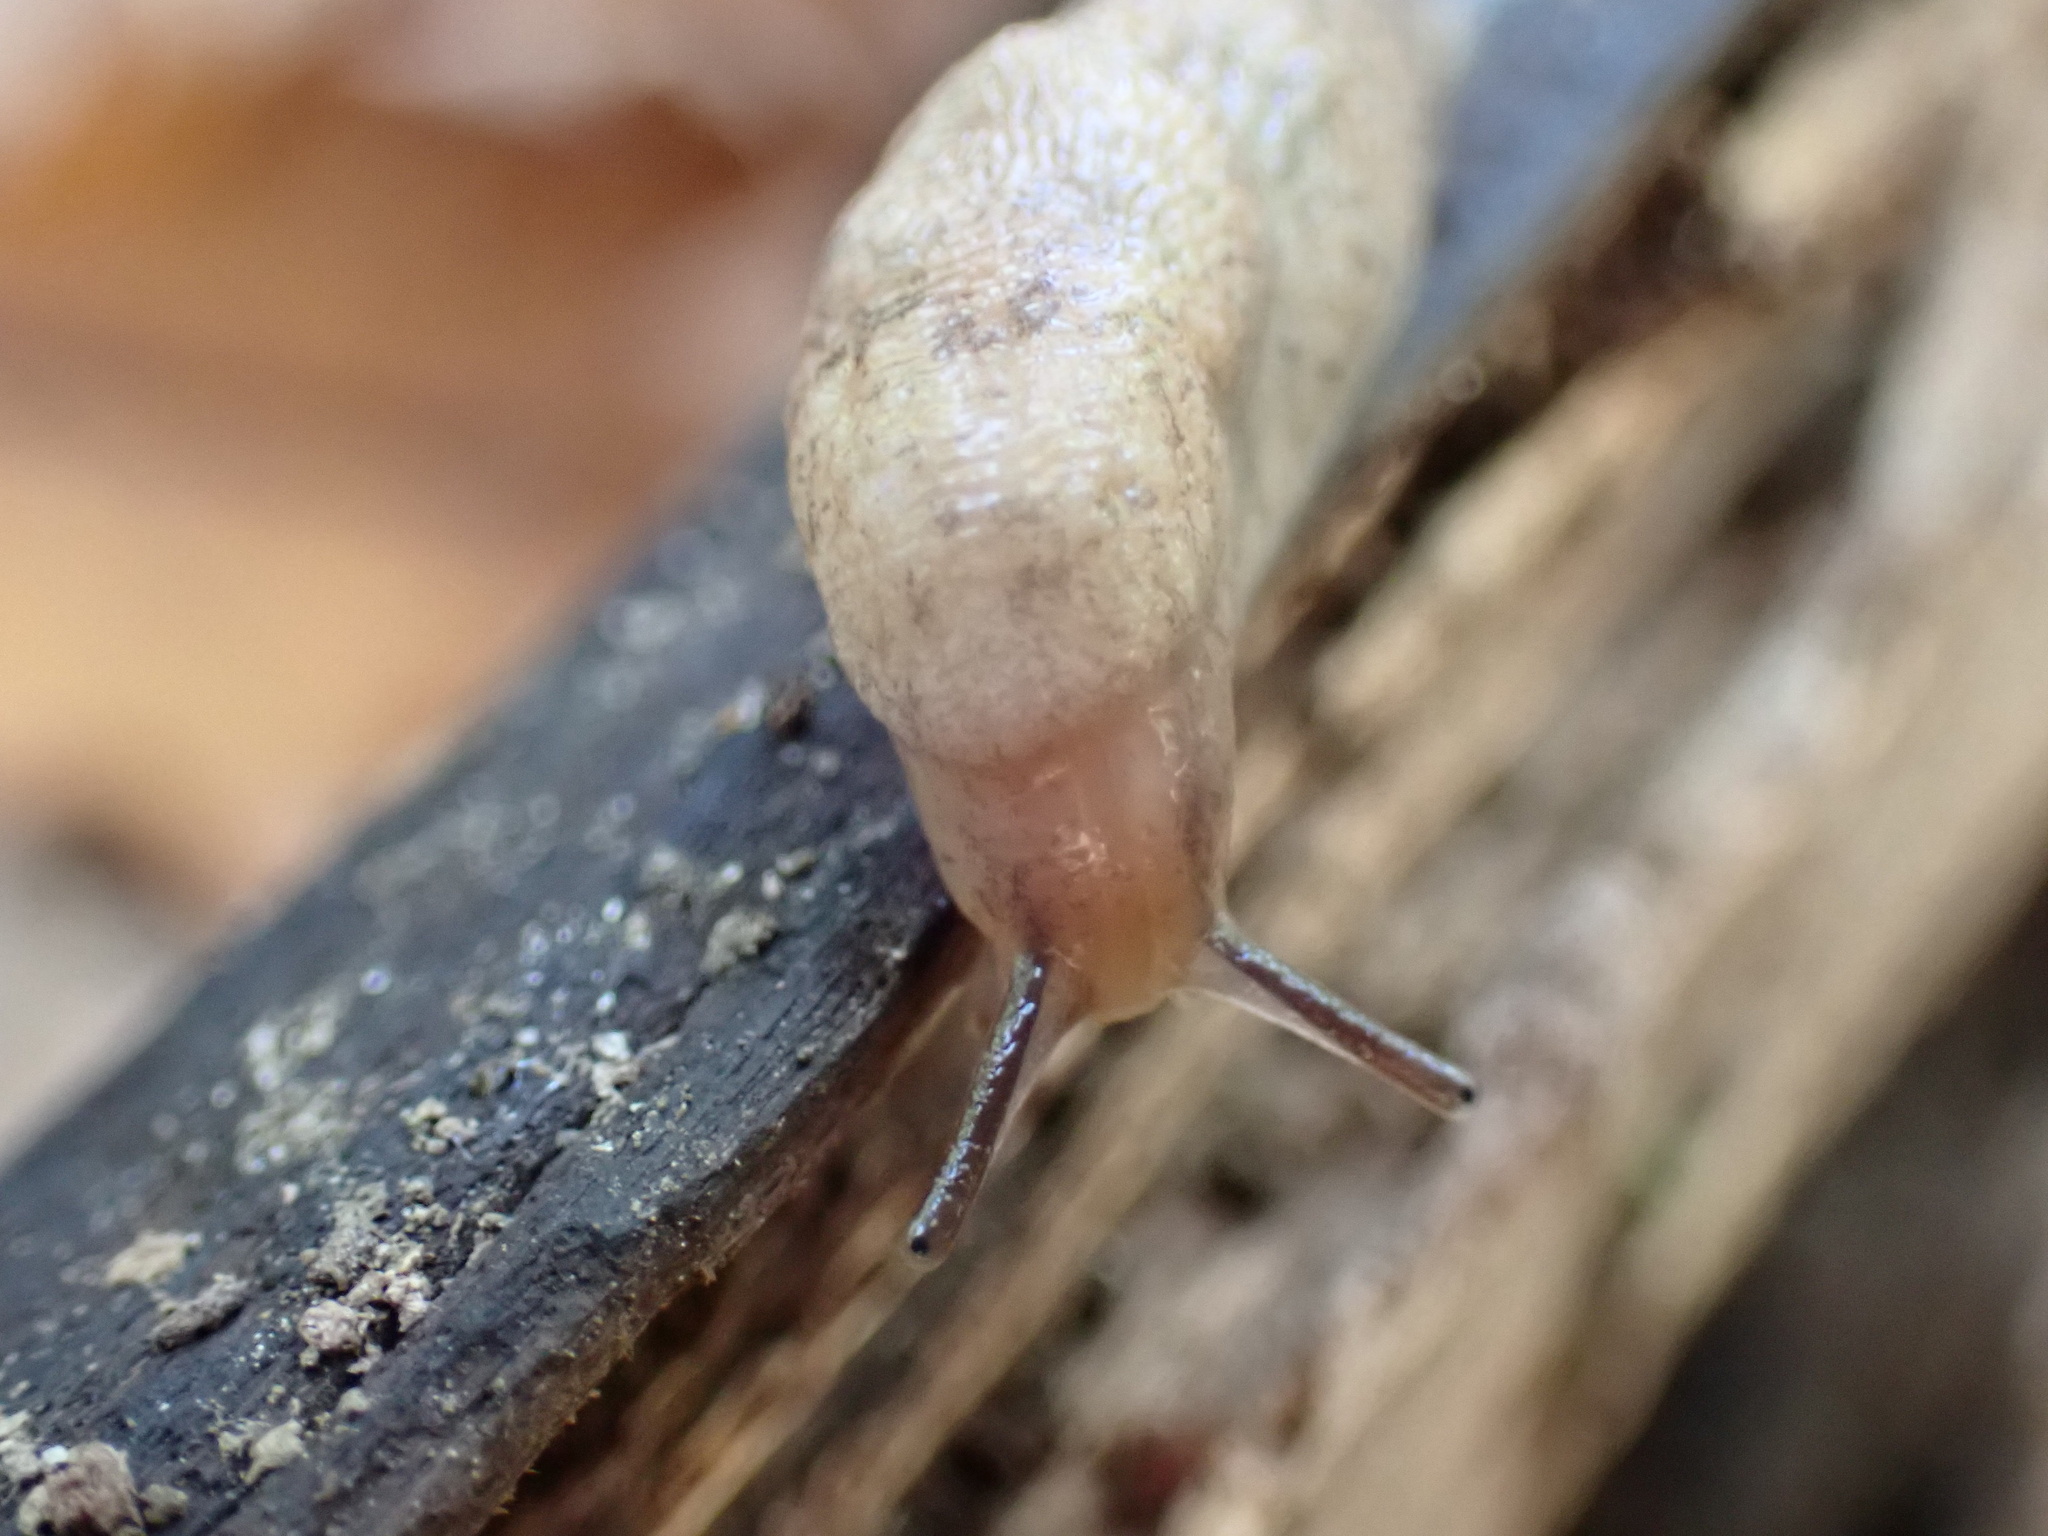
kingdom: Animalia
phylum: Mollusca
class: Gastropoda
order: Stylommatophora
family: Agriolimacidae
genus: Deroceras
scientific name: Deroceras reticulatum
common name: Gray field slug
